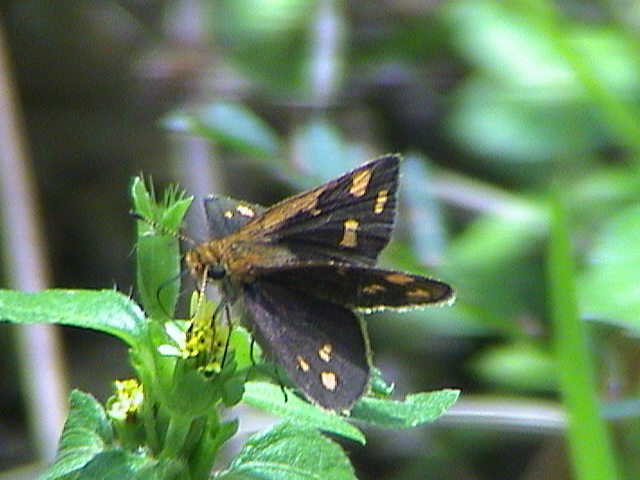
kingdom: Animalia
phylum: Arthropoda
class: Insecta
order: Lepidoptera
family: Hesperiidae
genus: Taractrocera
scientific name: Taractrocera ceramas
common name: Tamil grass dart
